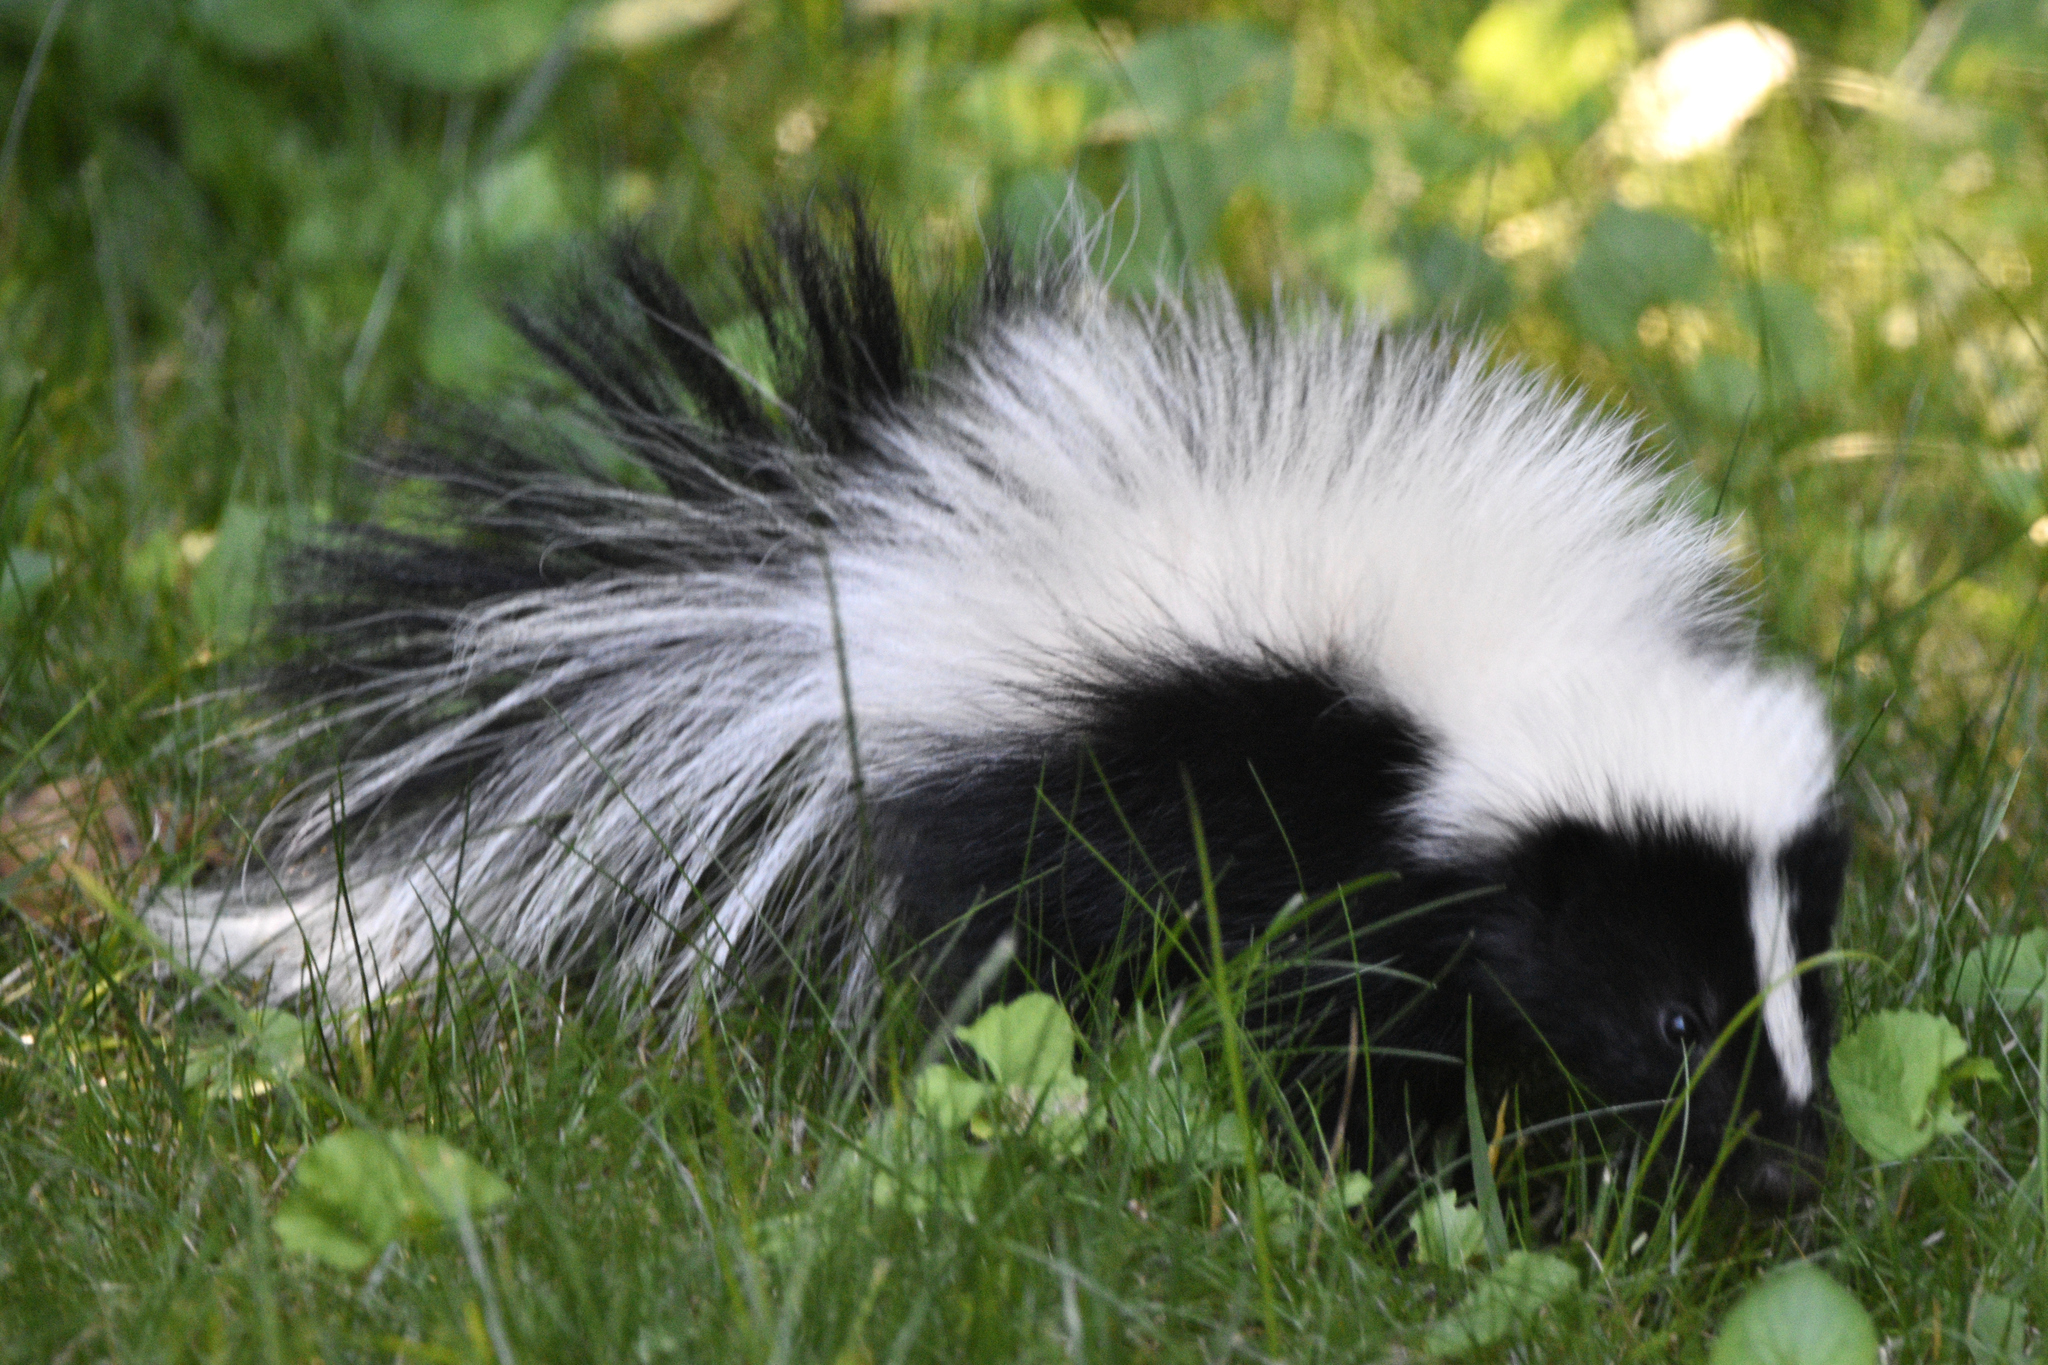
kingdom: Animalia
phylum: Chordata
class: Mammalia
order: Carnivora
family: Mephitidae
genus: Mephitis
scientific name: Mephitis mephitis
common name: Striped skunk
